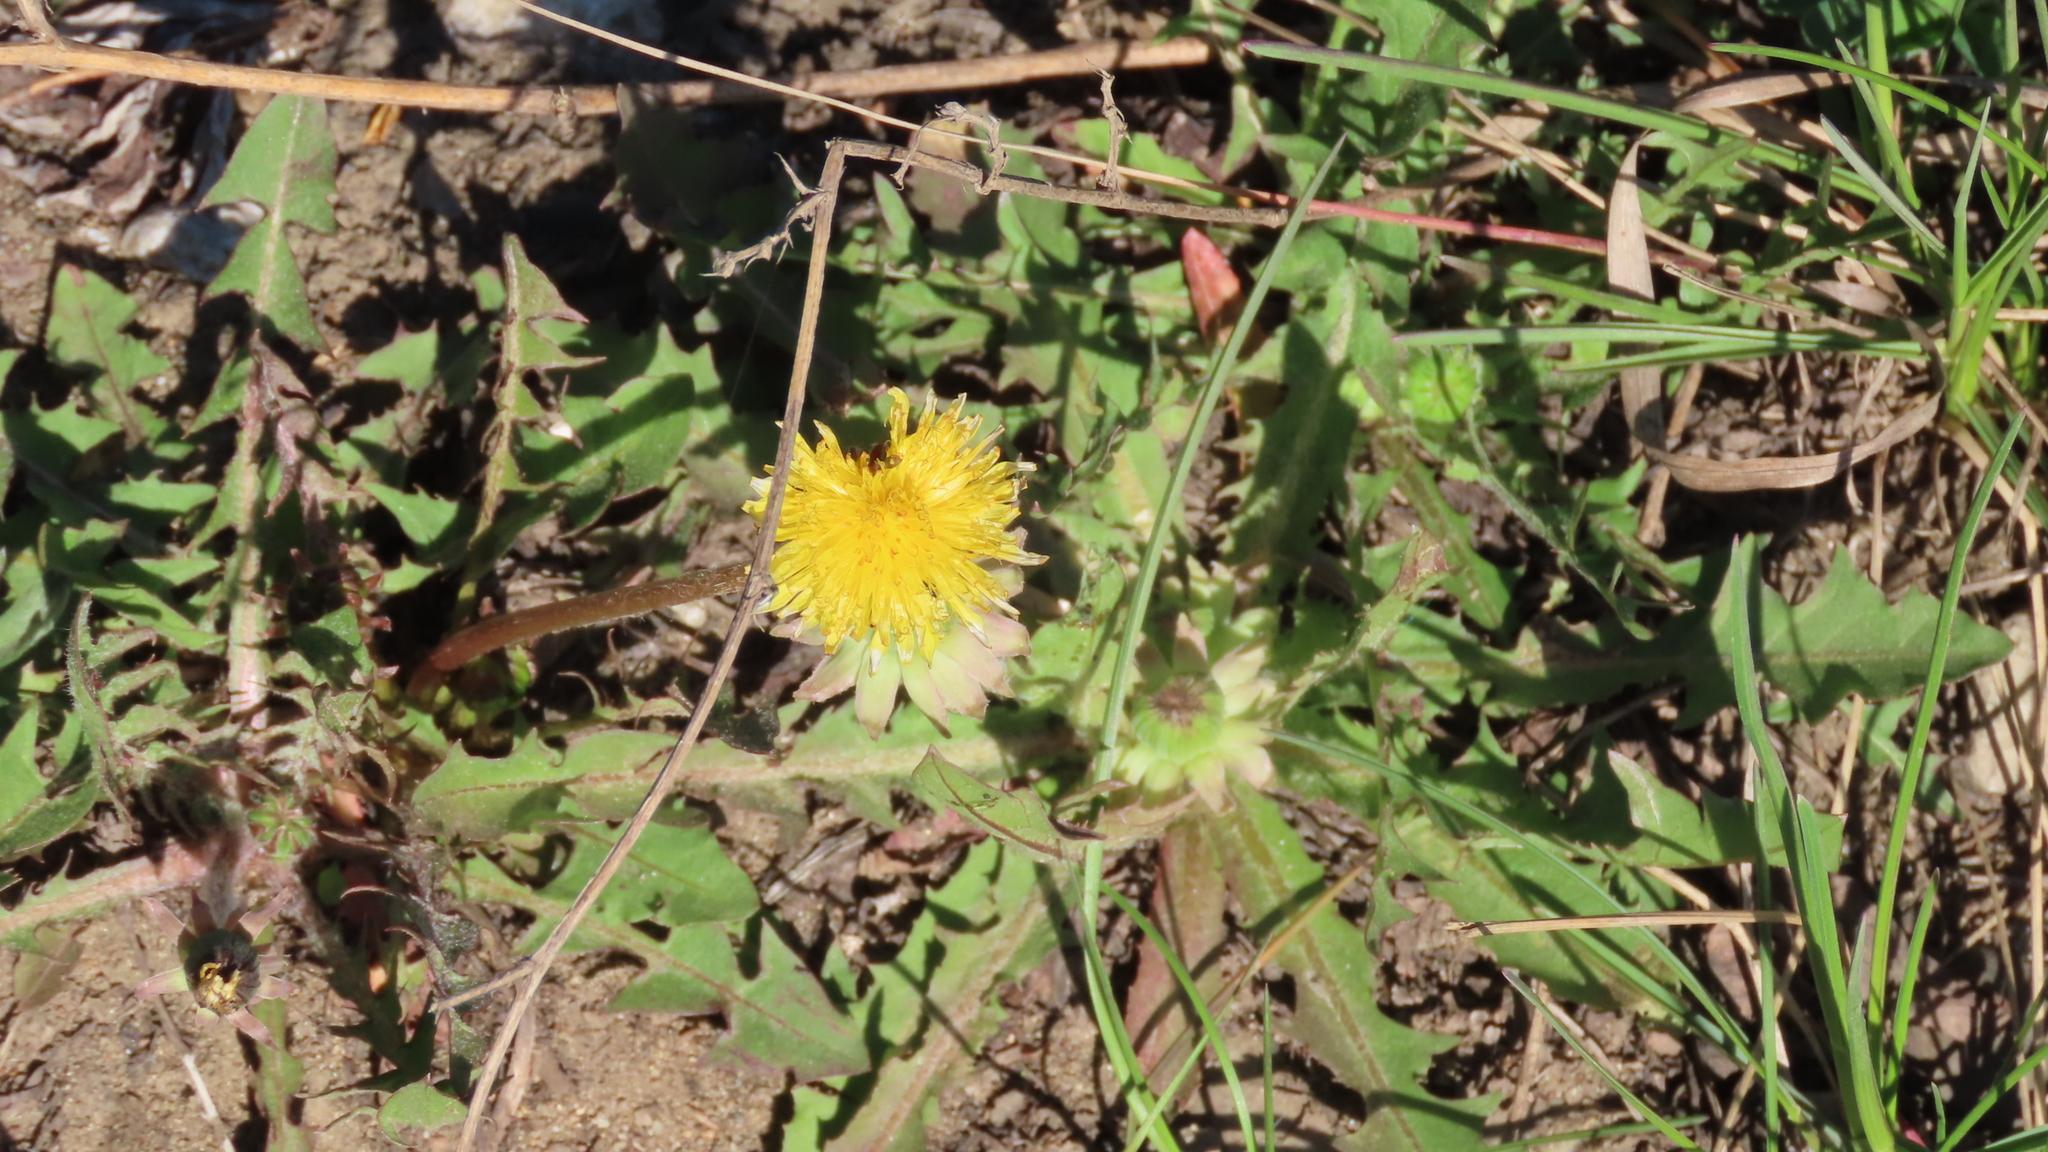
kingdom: Plantae
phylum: Tracheophyta
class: Magnoliopsida
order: Asterales
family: Asteraceae
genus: Taraxacum
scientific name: Taraxacum officinale
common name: Common dandelion
